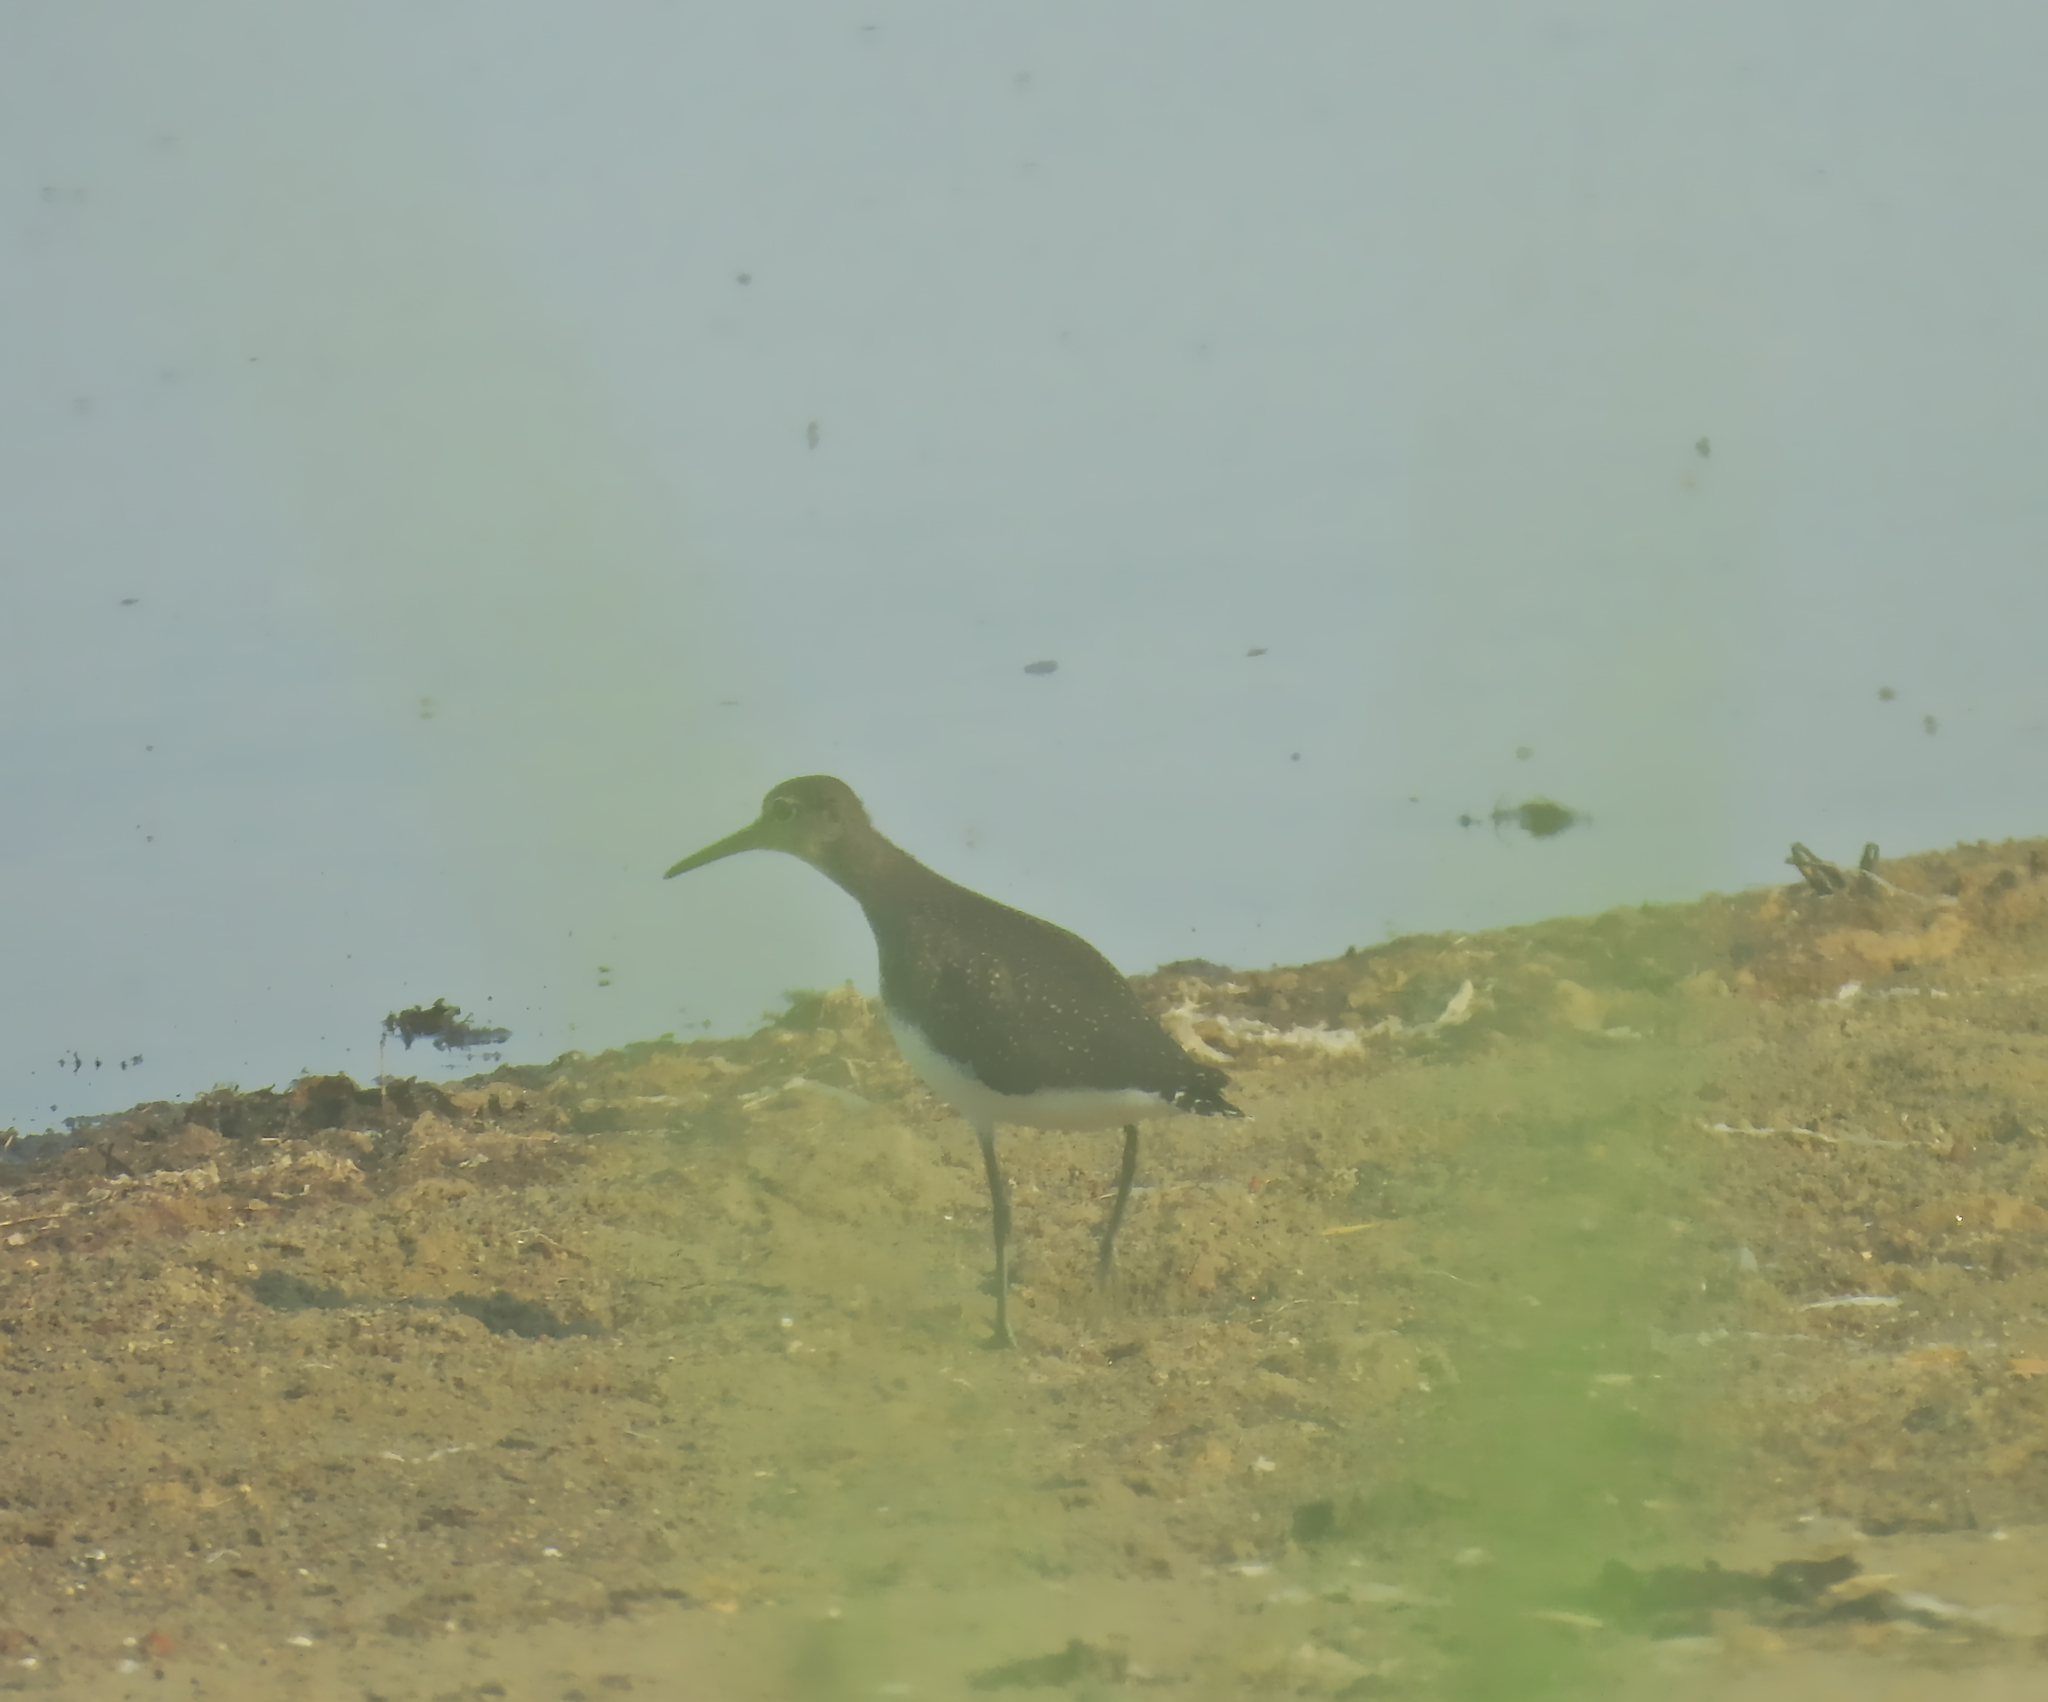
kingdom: Animalia
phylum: Chordata
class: Aves
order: Charadriiformes
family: Scolopacidae
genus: Tringa
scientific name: Tringa ochropus
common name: Green sandpiper
